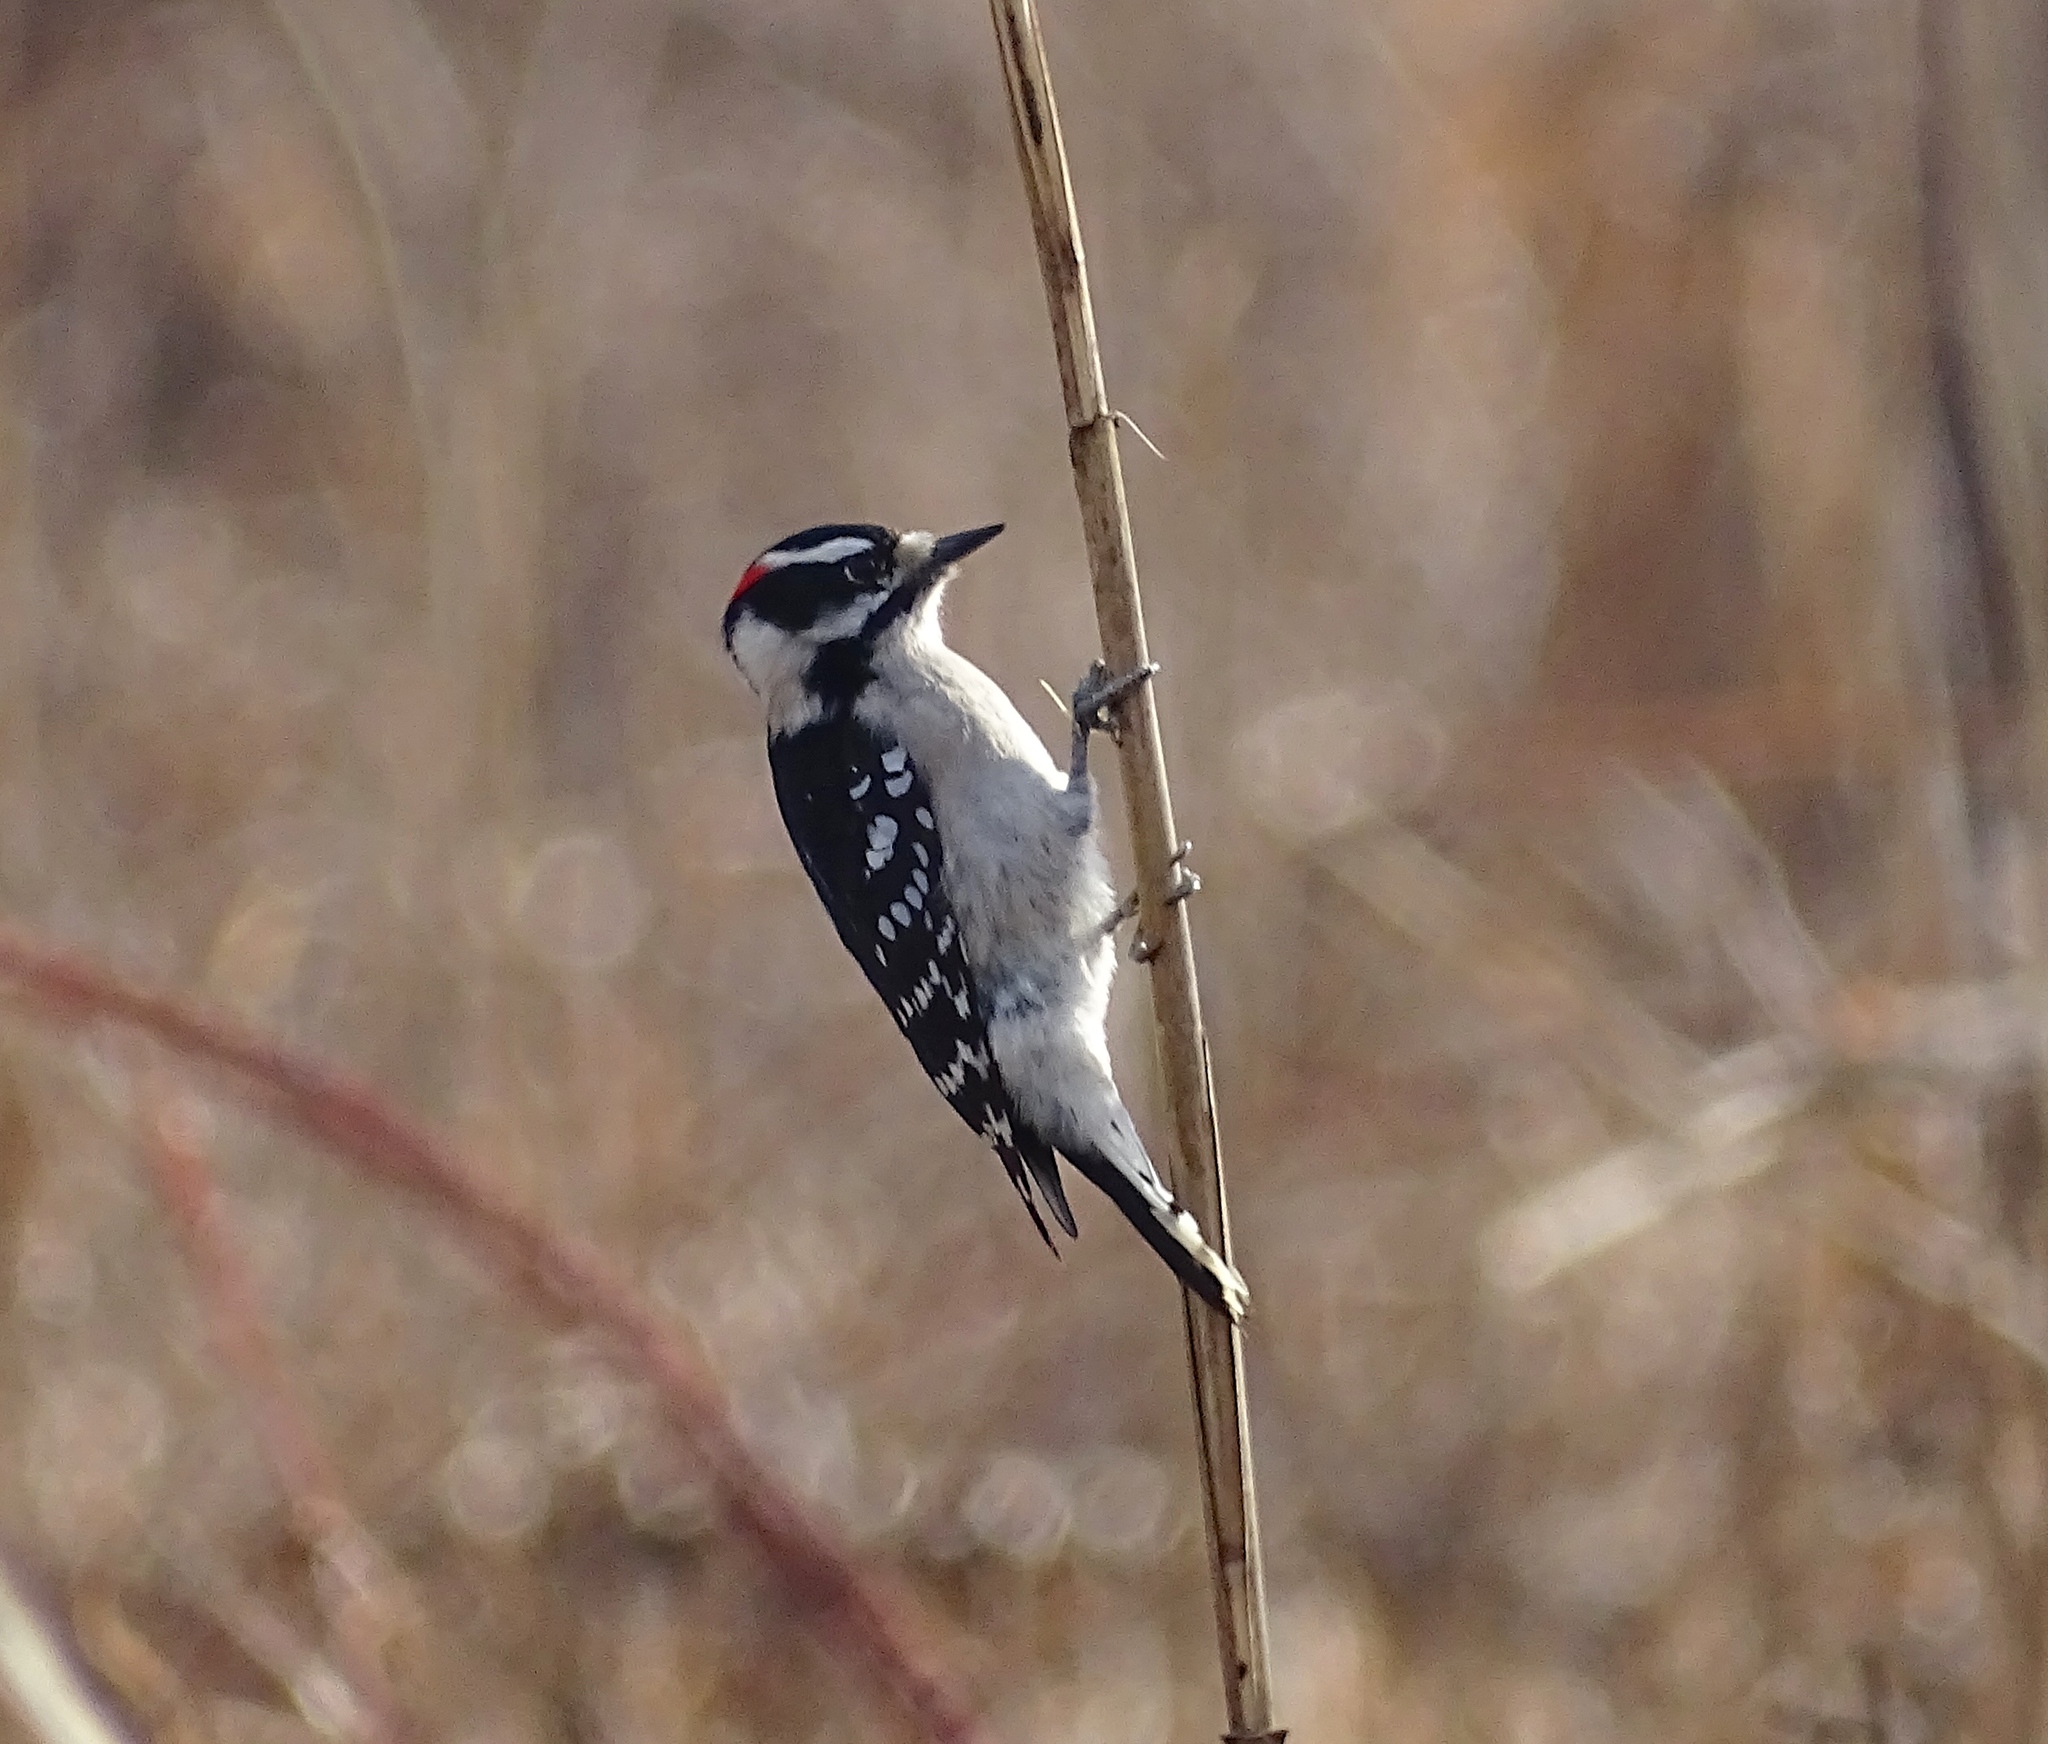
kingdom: Animalia
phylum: Chordata
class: Aves
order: Piciformes
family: Picidae
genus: Dryobates
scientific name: Dryobates pubescens
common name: Downy woodpecker
